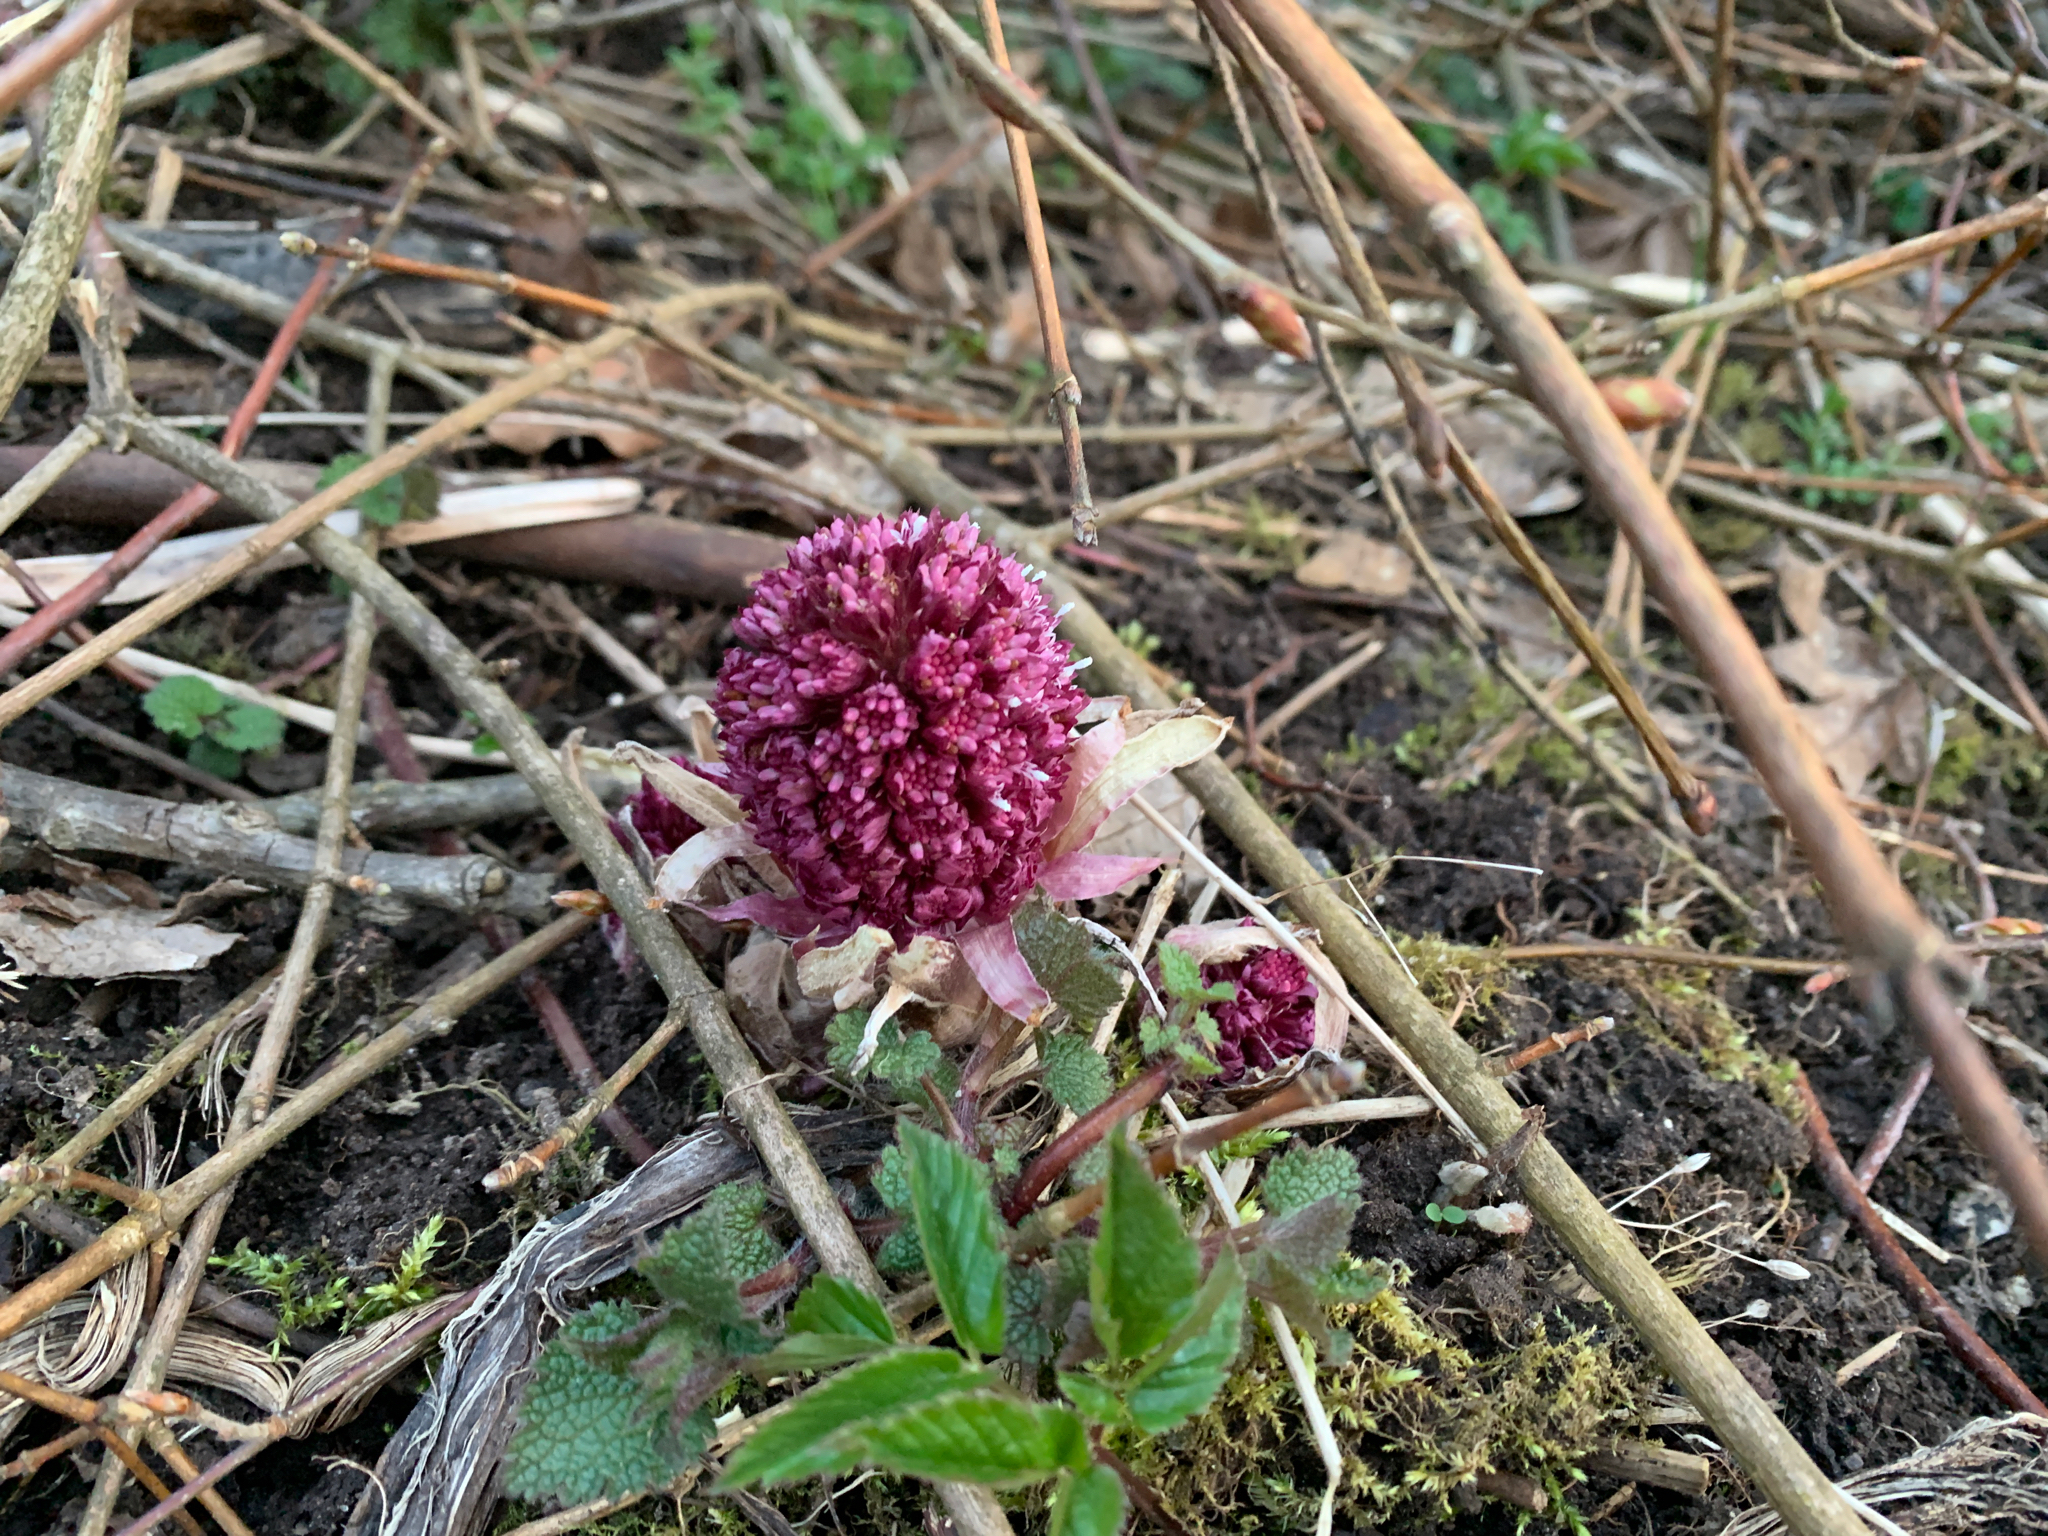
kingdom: Plantae
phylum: Tracheophyta
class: Magnoliopsida
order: Asterales
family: Asteraceae
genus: Petasites
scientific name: Petasites hybridus
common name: Butterbur
